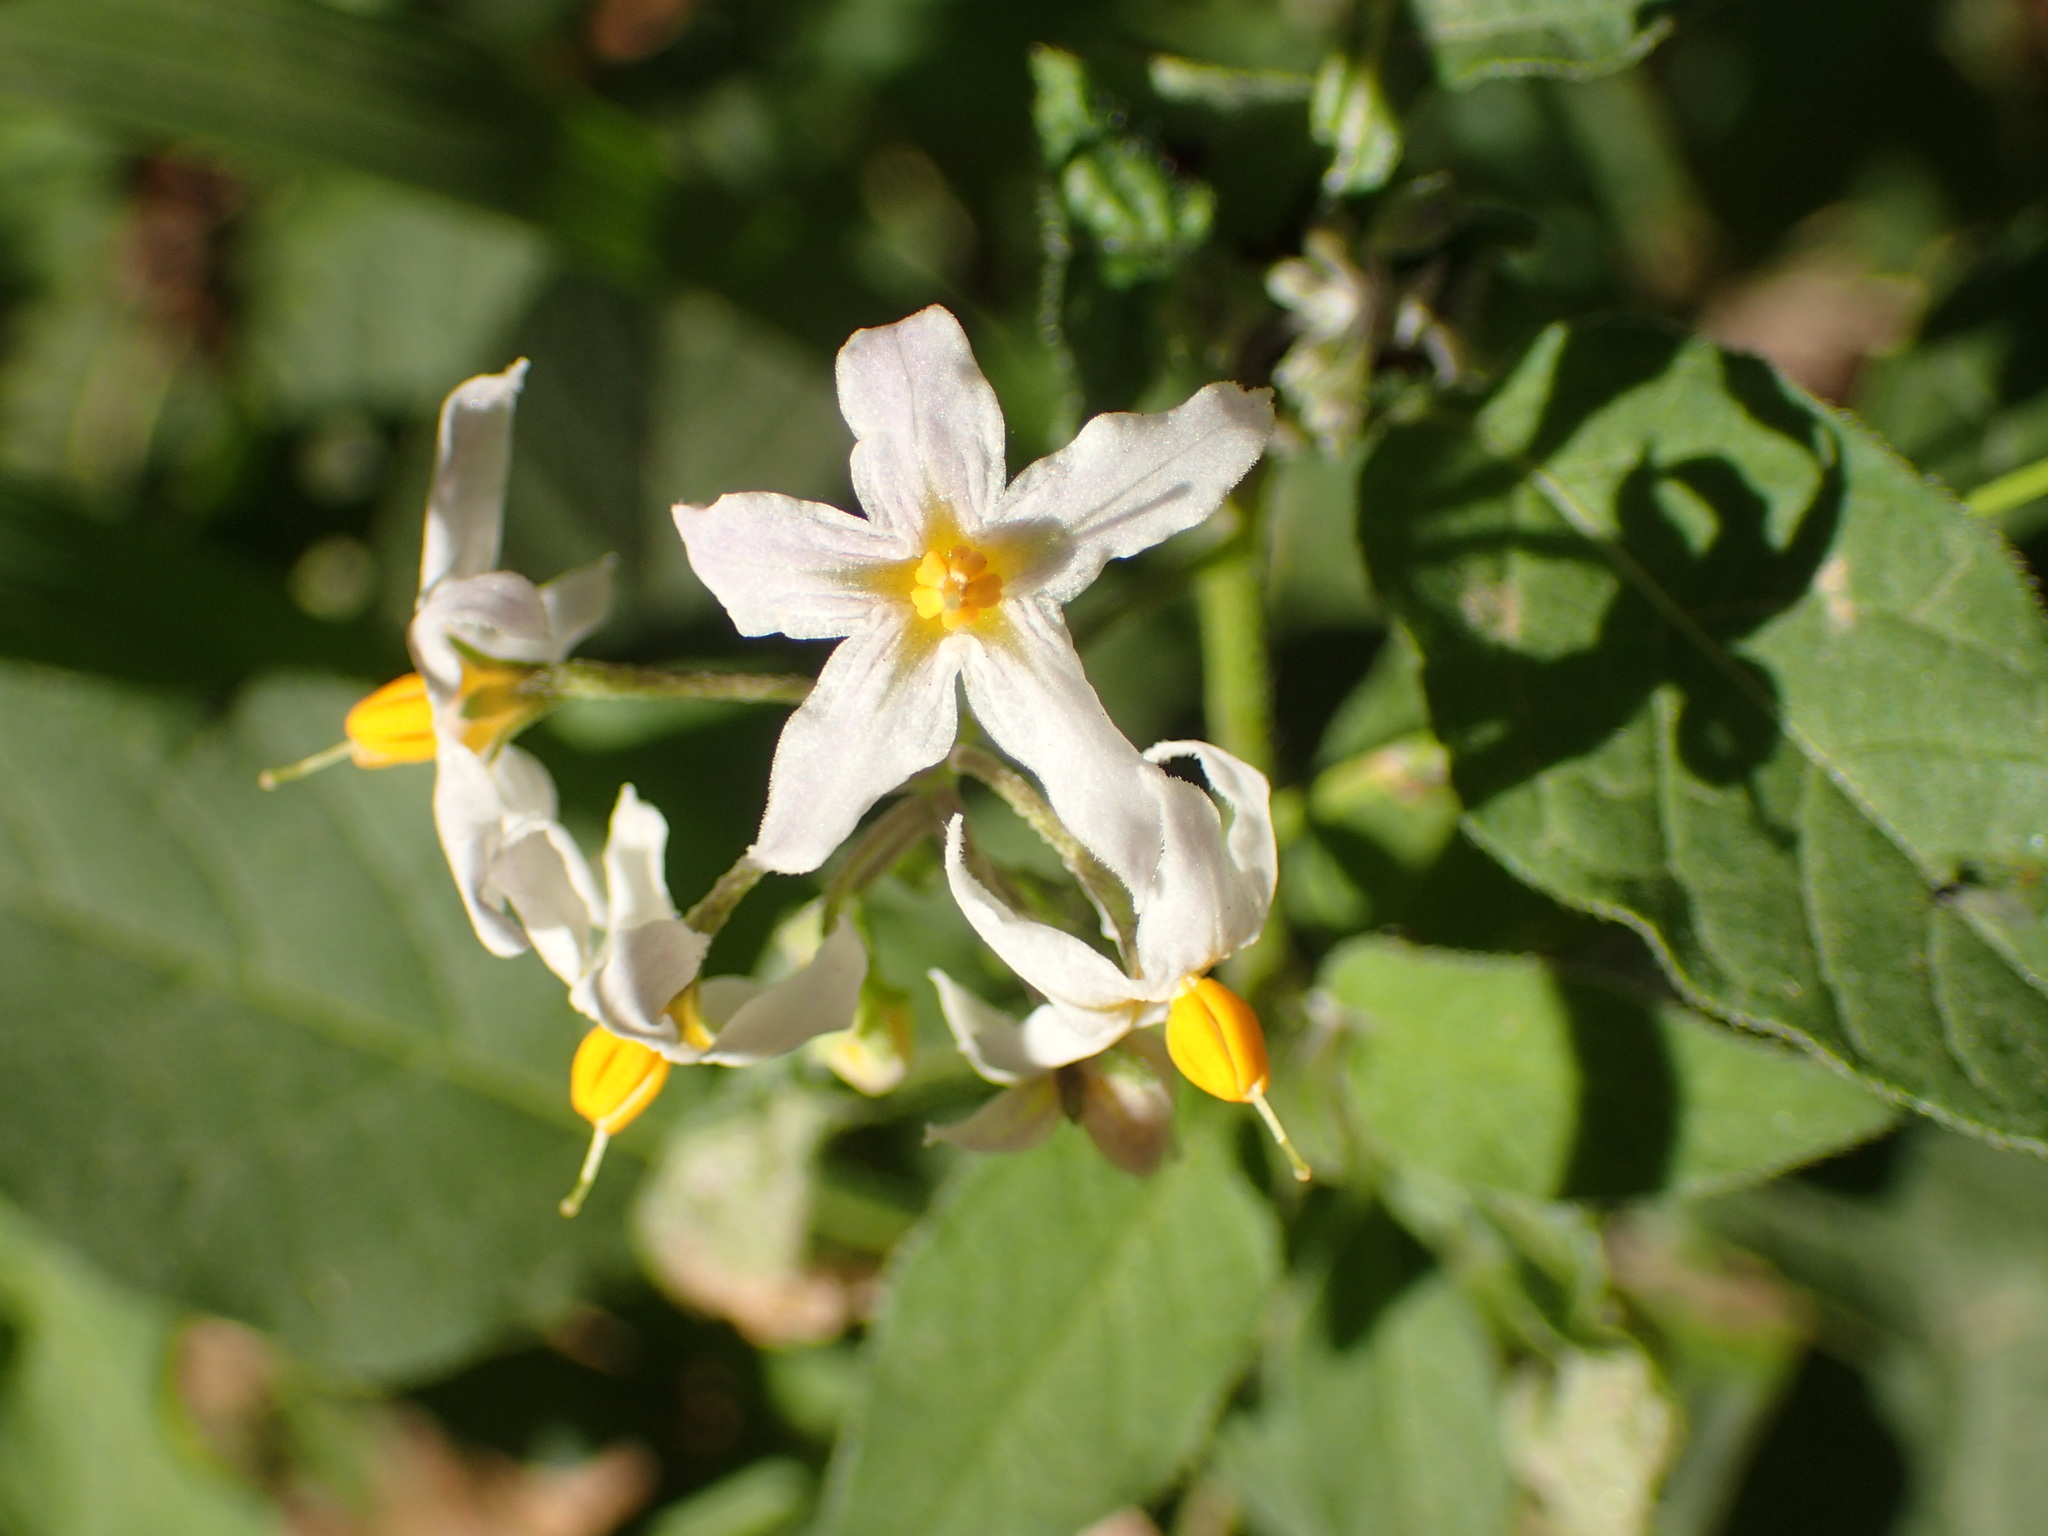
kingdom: Plantae
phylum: Tracheophyta
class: Magnoliopsida
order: Solanales
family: Solanaceae
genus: Solanum
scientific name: Solanum douglasii
